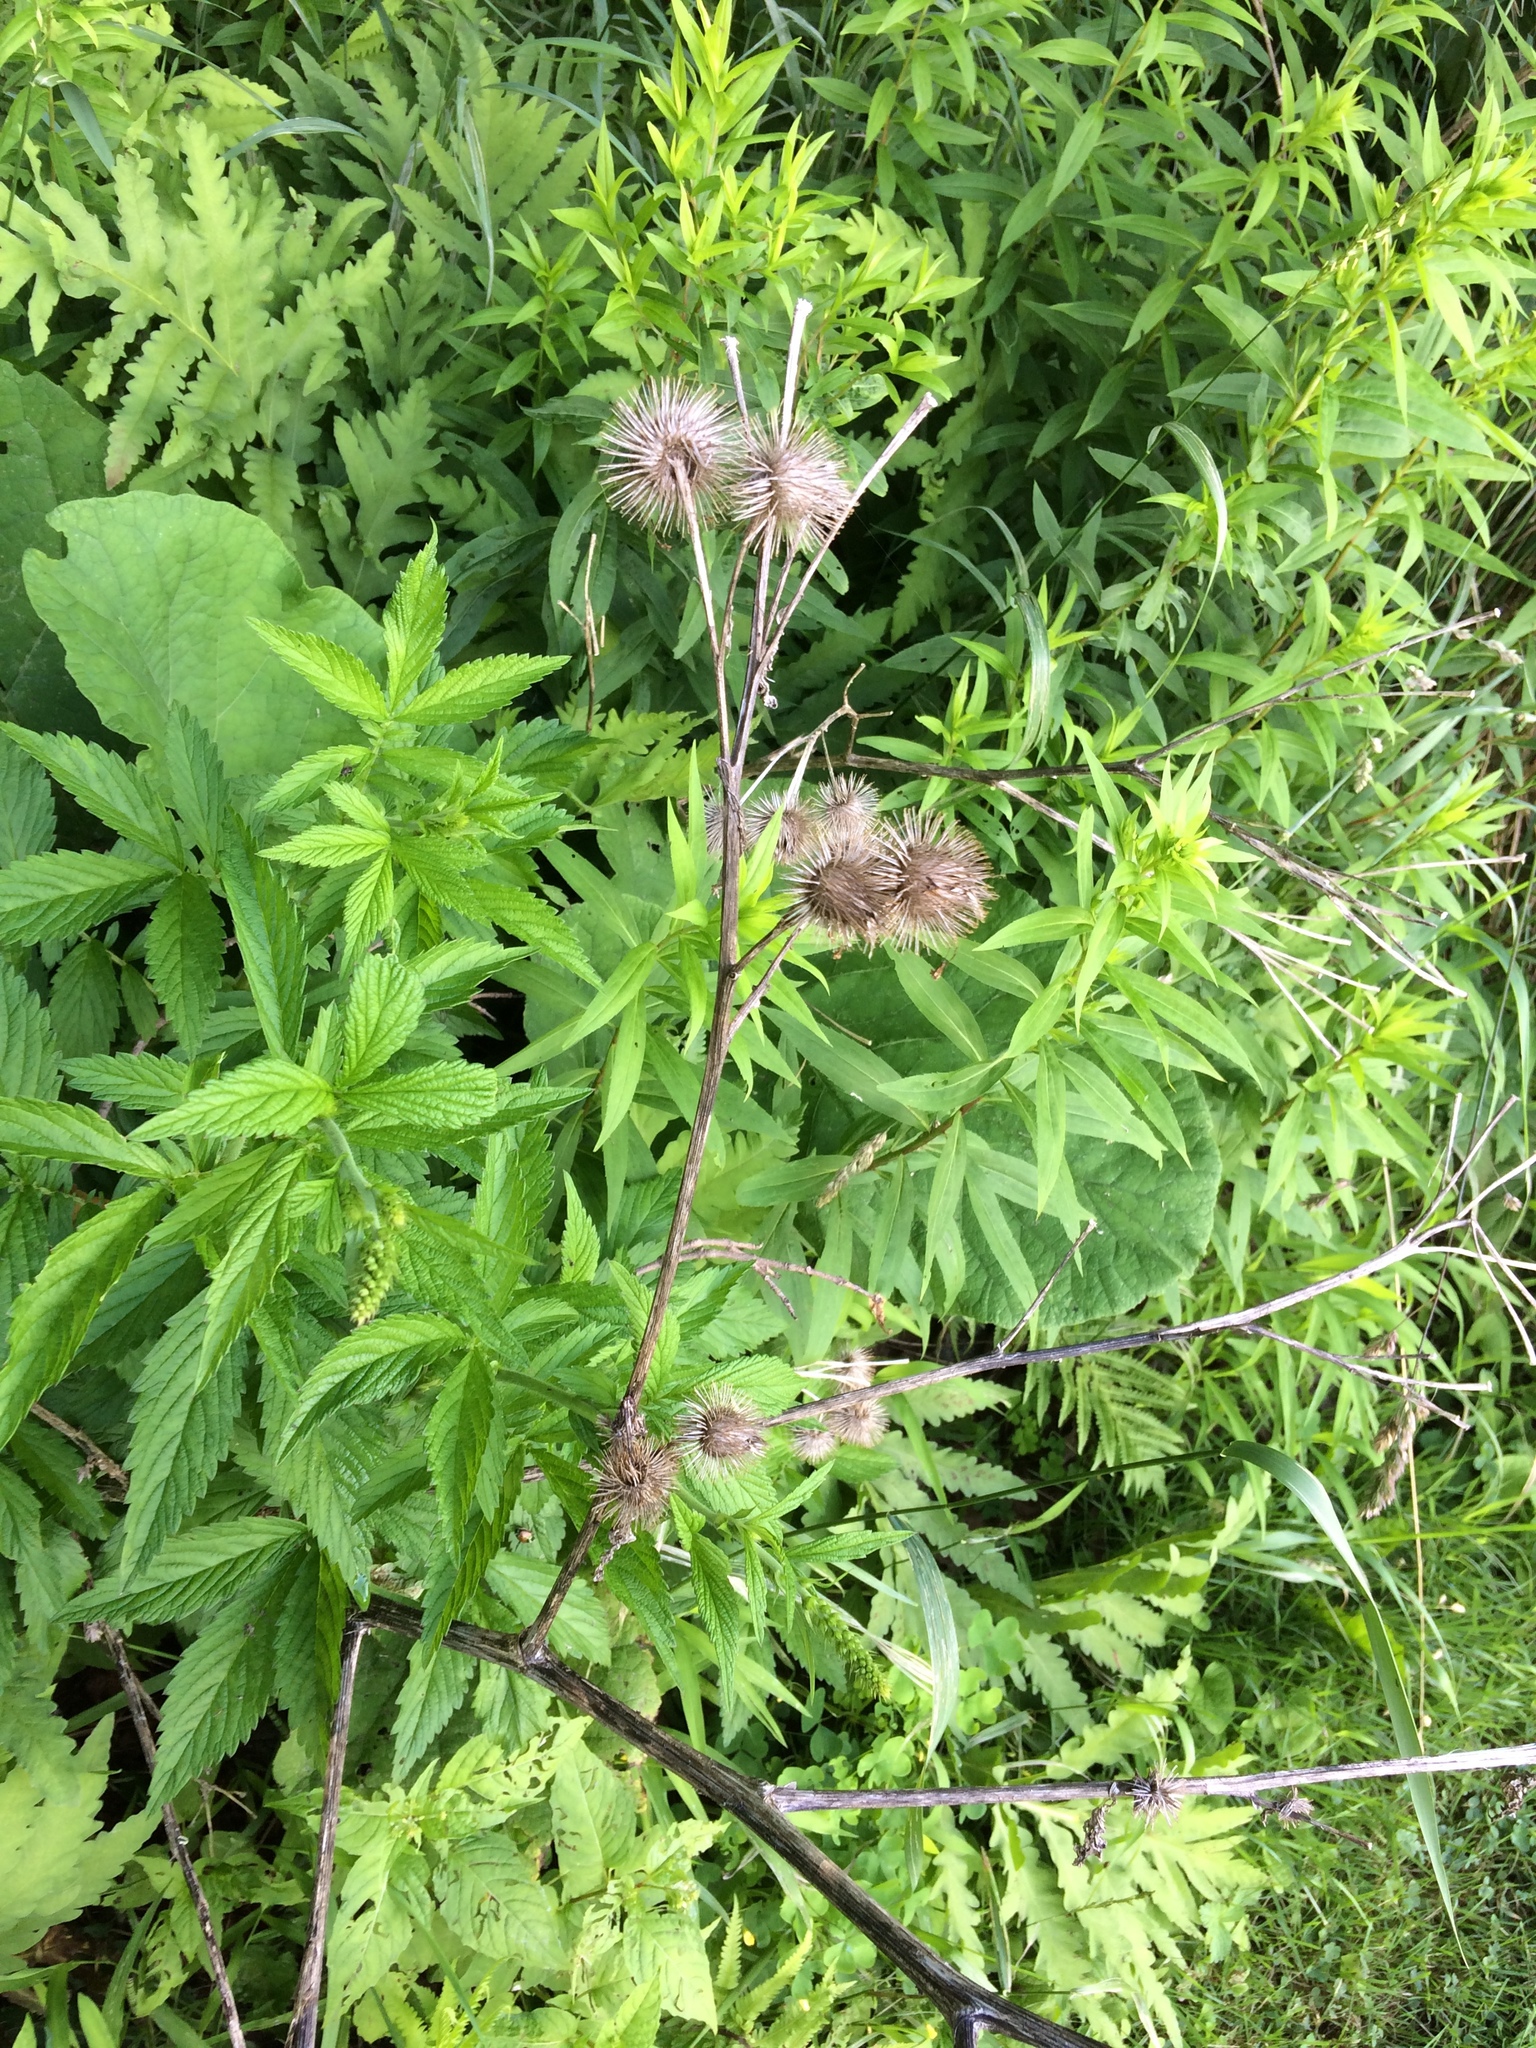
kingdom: Plantae
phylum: Tracheophyta
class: Magnoliopsida
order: Asterales
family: Asteraceae
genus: Arctium
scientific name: Arctium lappa
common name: Greater burdock
